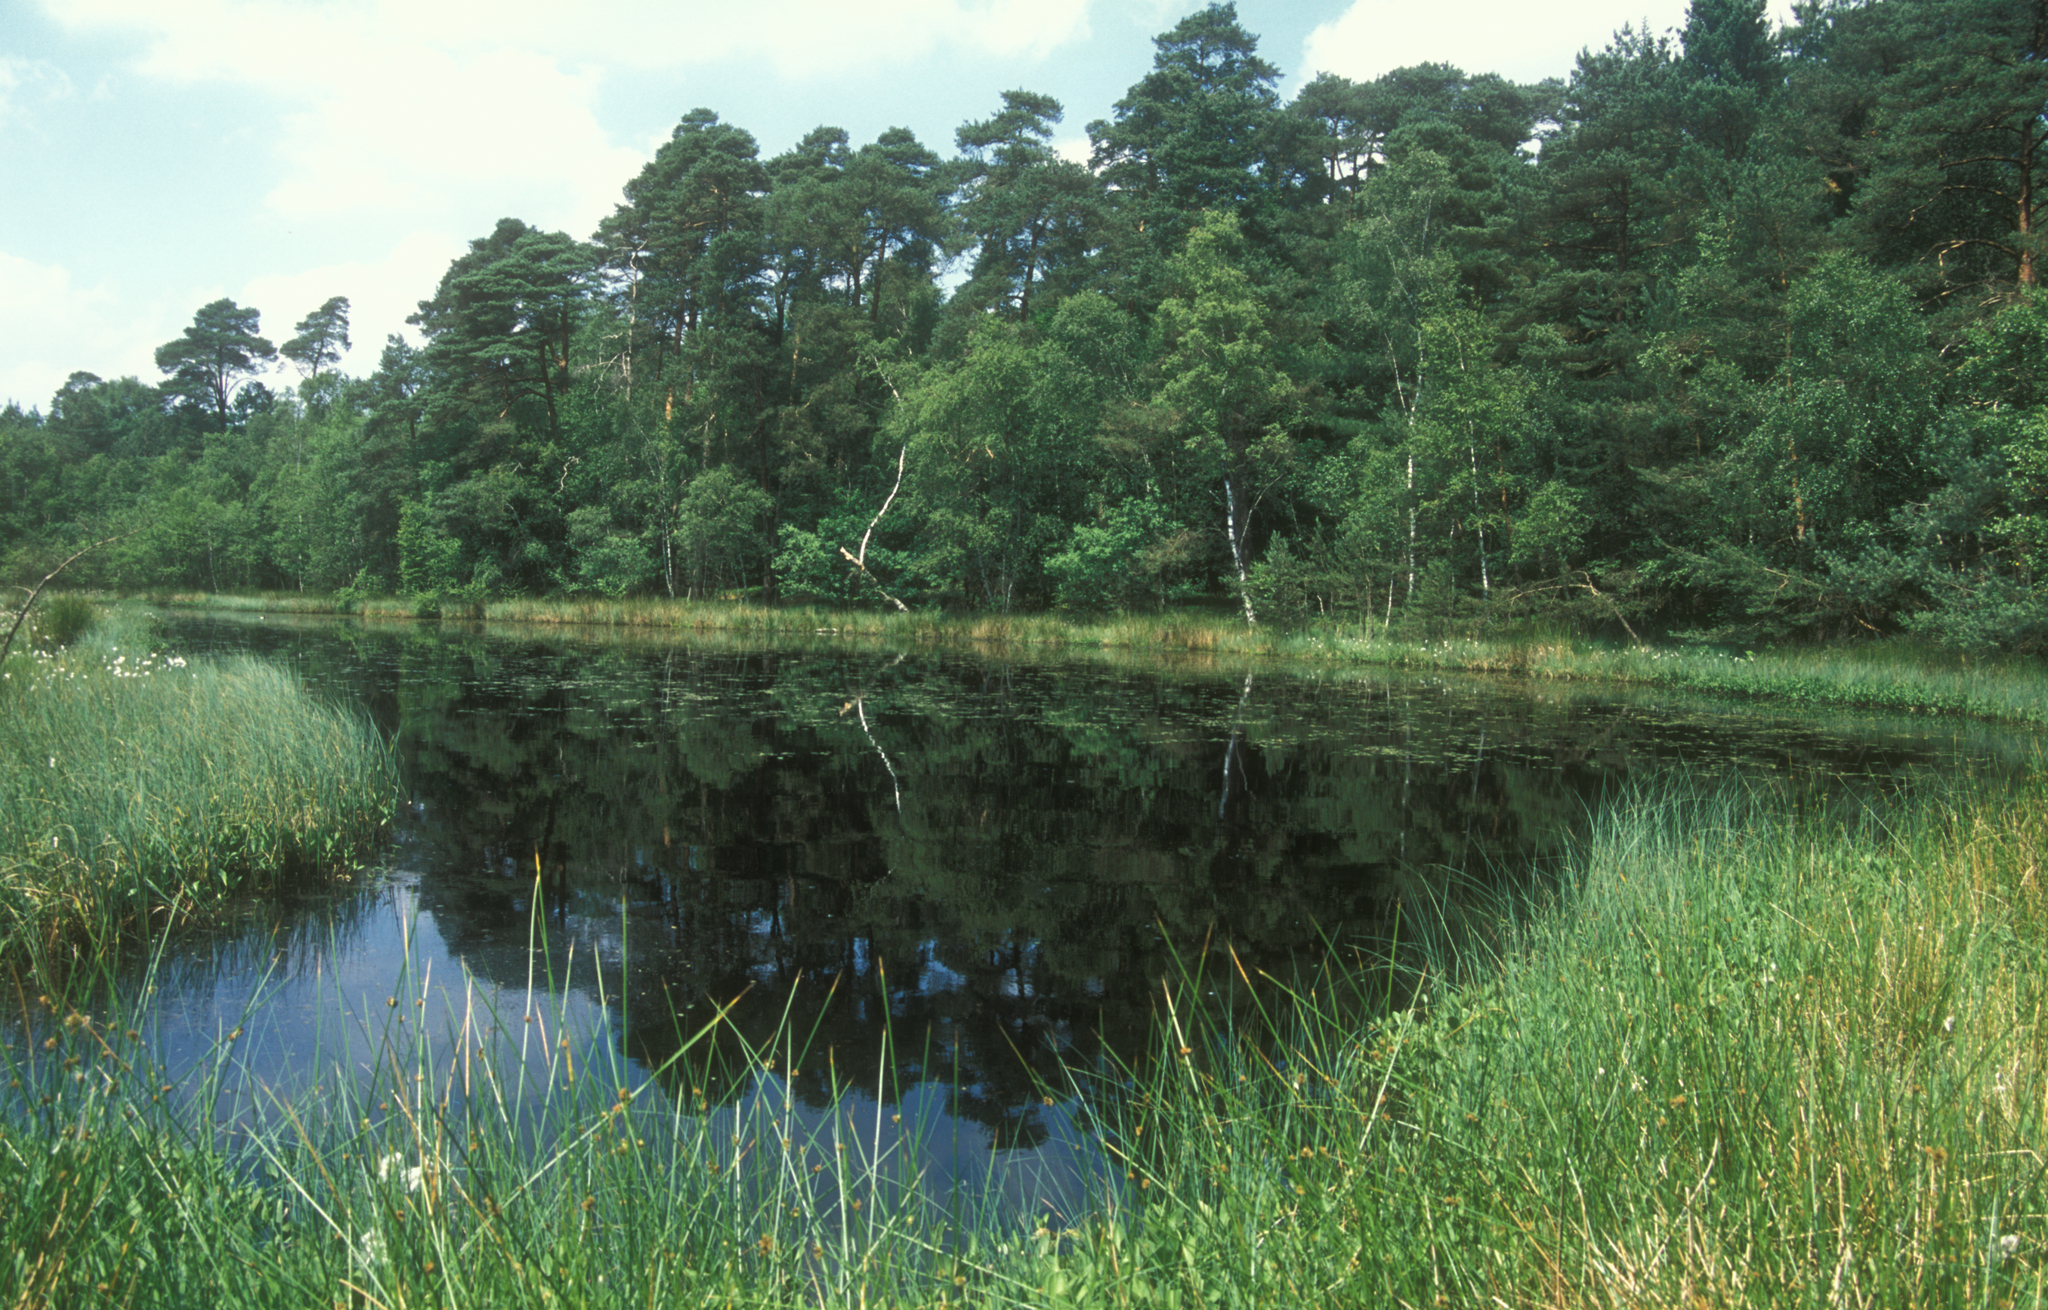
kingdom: Plantae
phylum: Tracheophyta
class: Liliopsida
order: Poales
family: Cyperaceae
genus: Carex
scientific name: Carex rostrata
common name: Bottle sedge
